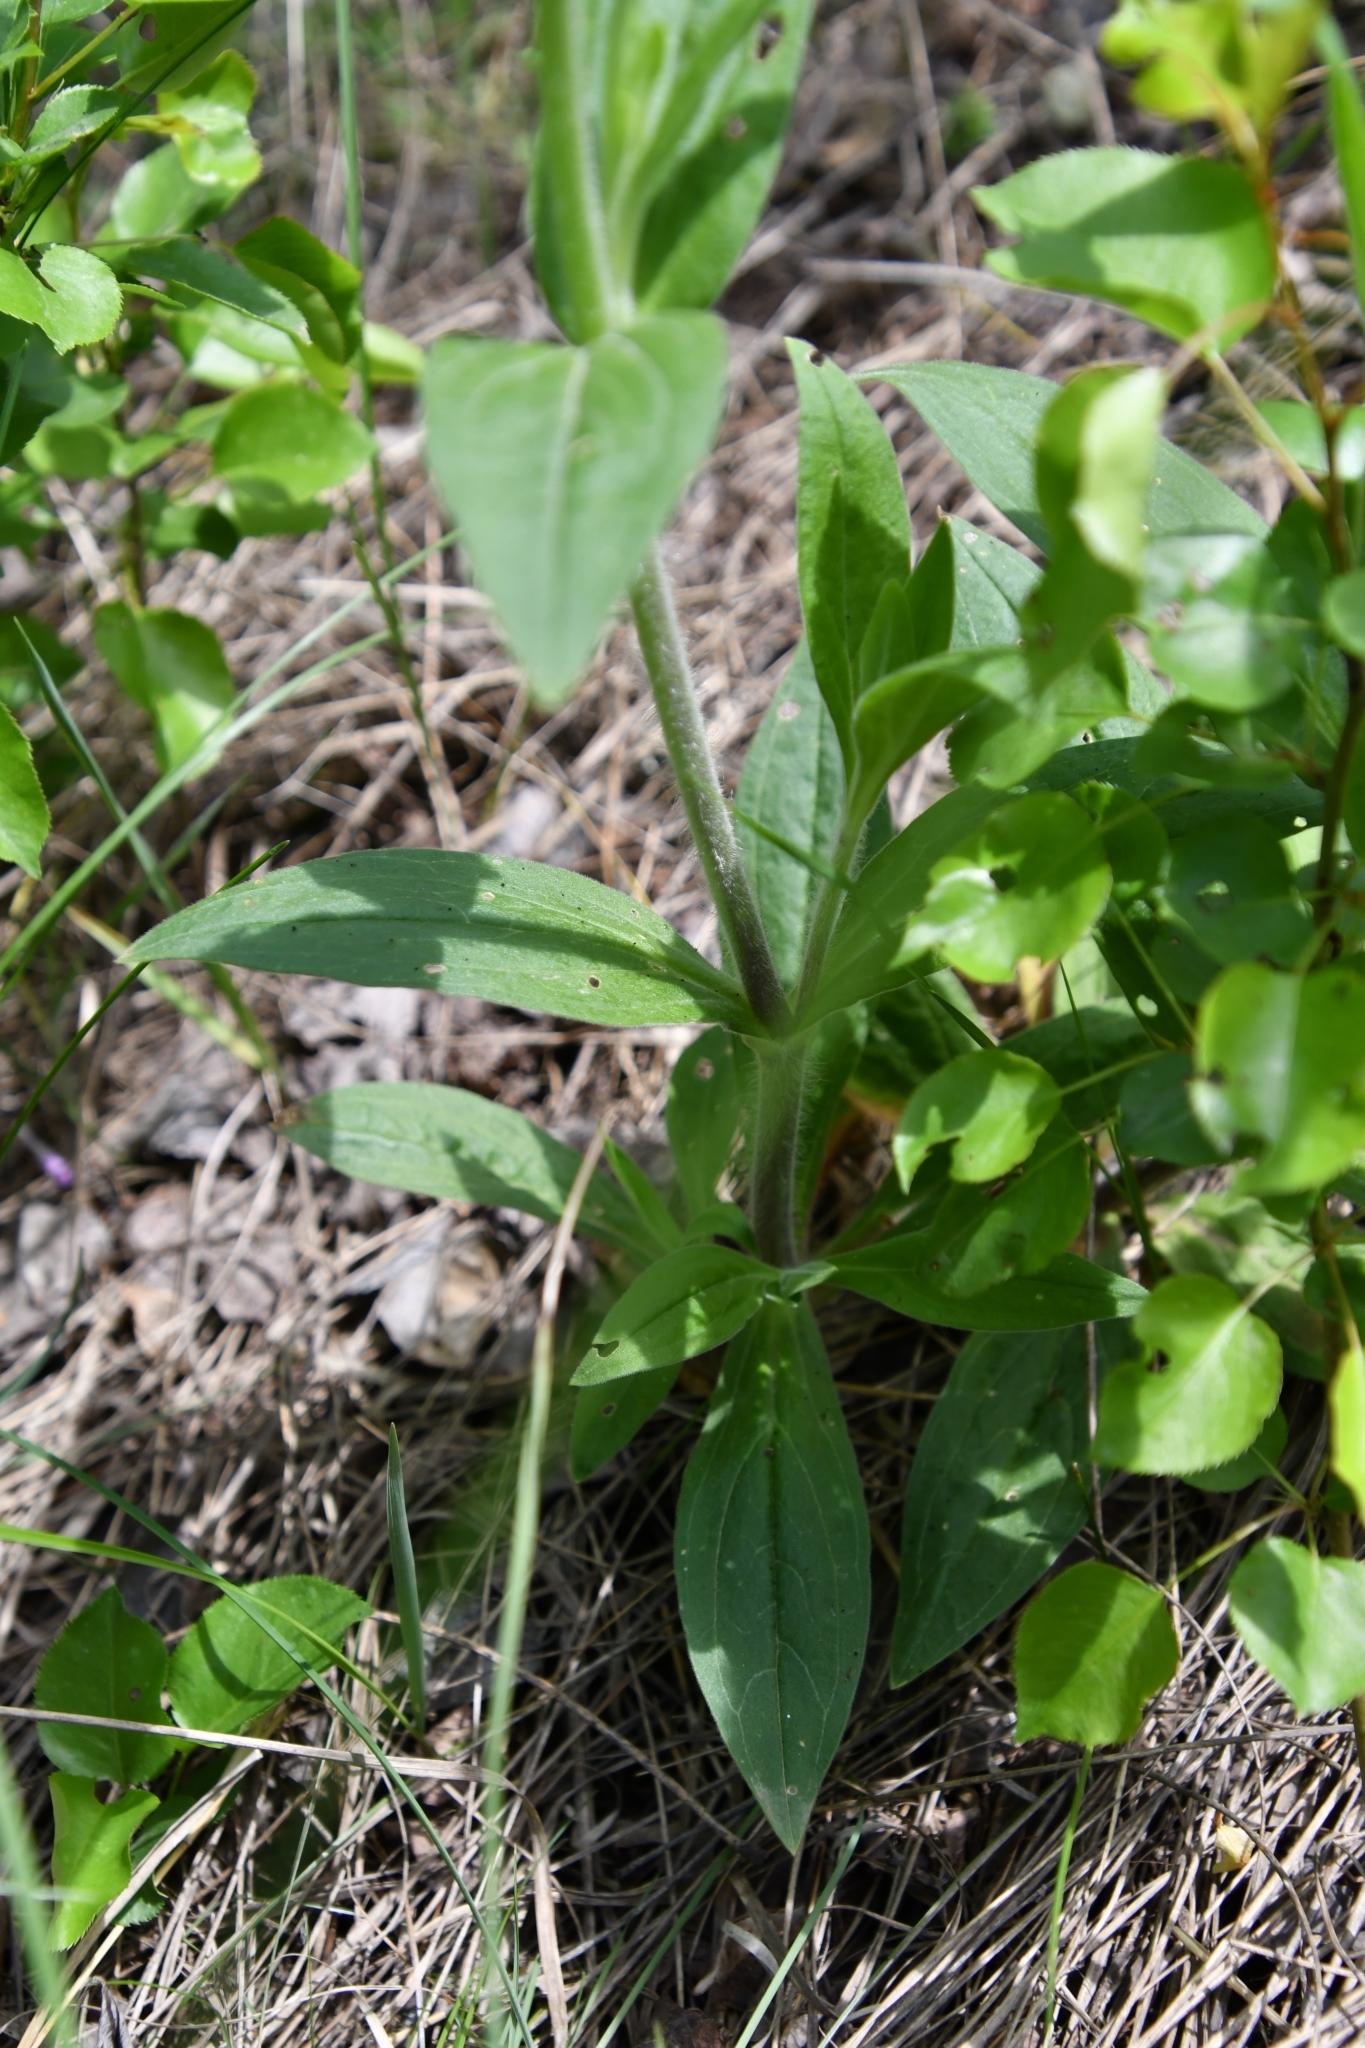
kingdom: Plantae
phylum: Tracheophyta
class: Magnoliopsida
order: Caryophyllales
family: Caryophyllaceae
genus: Silene
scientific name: Silene latifolia
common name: White campion
